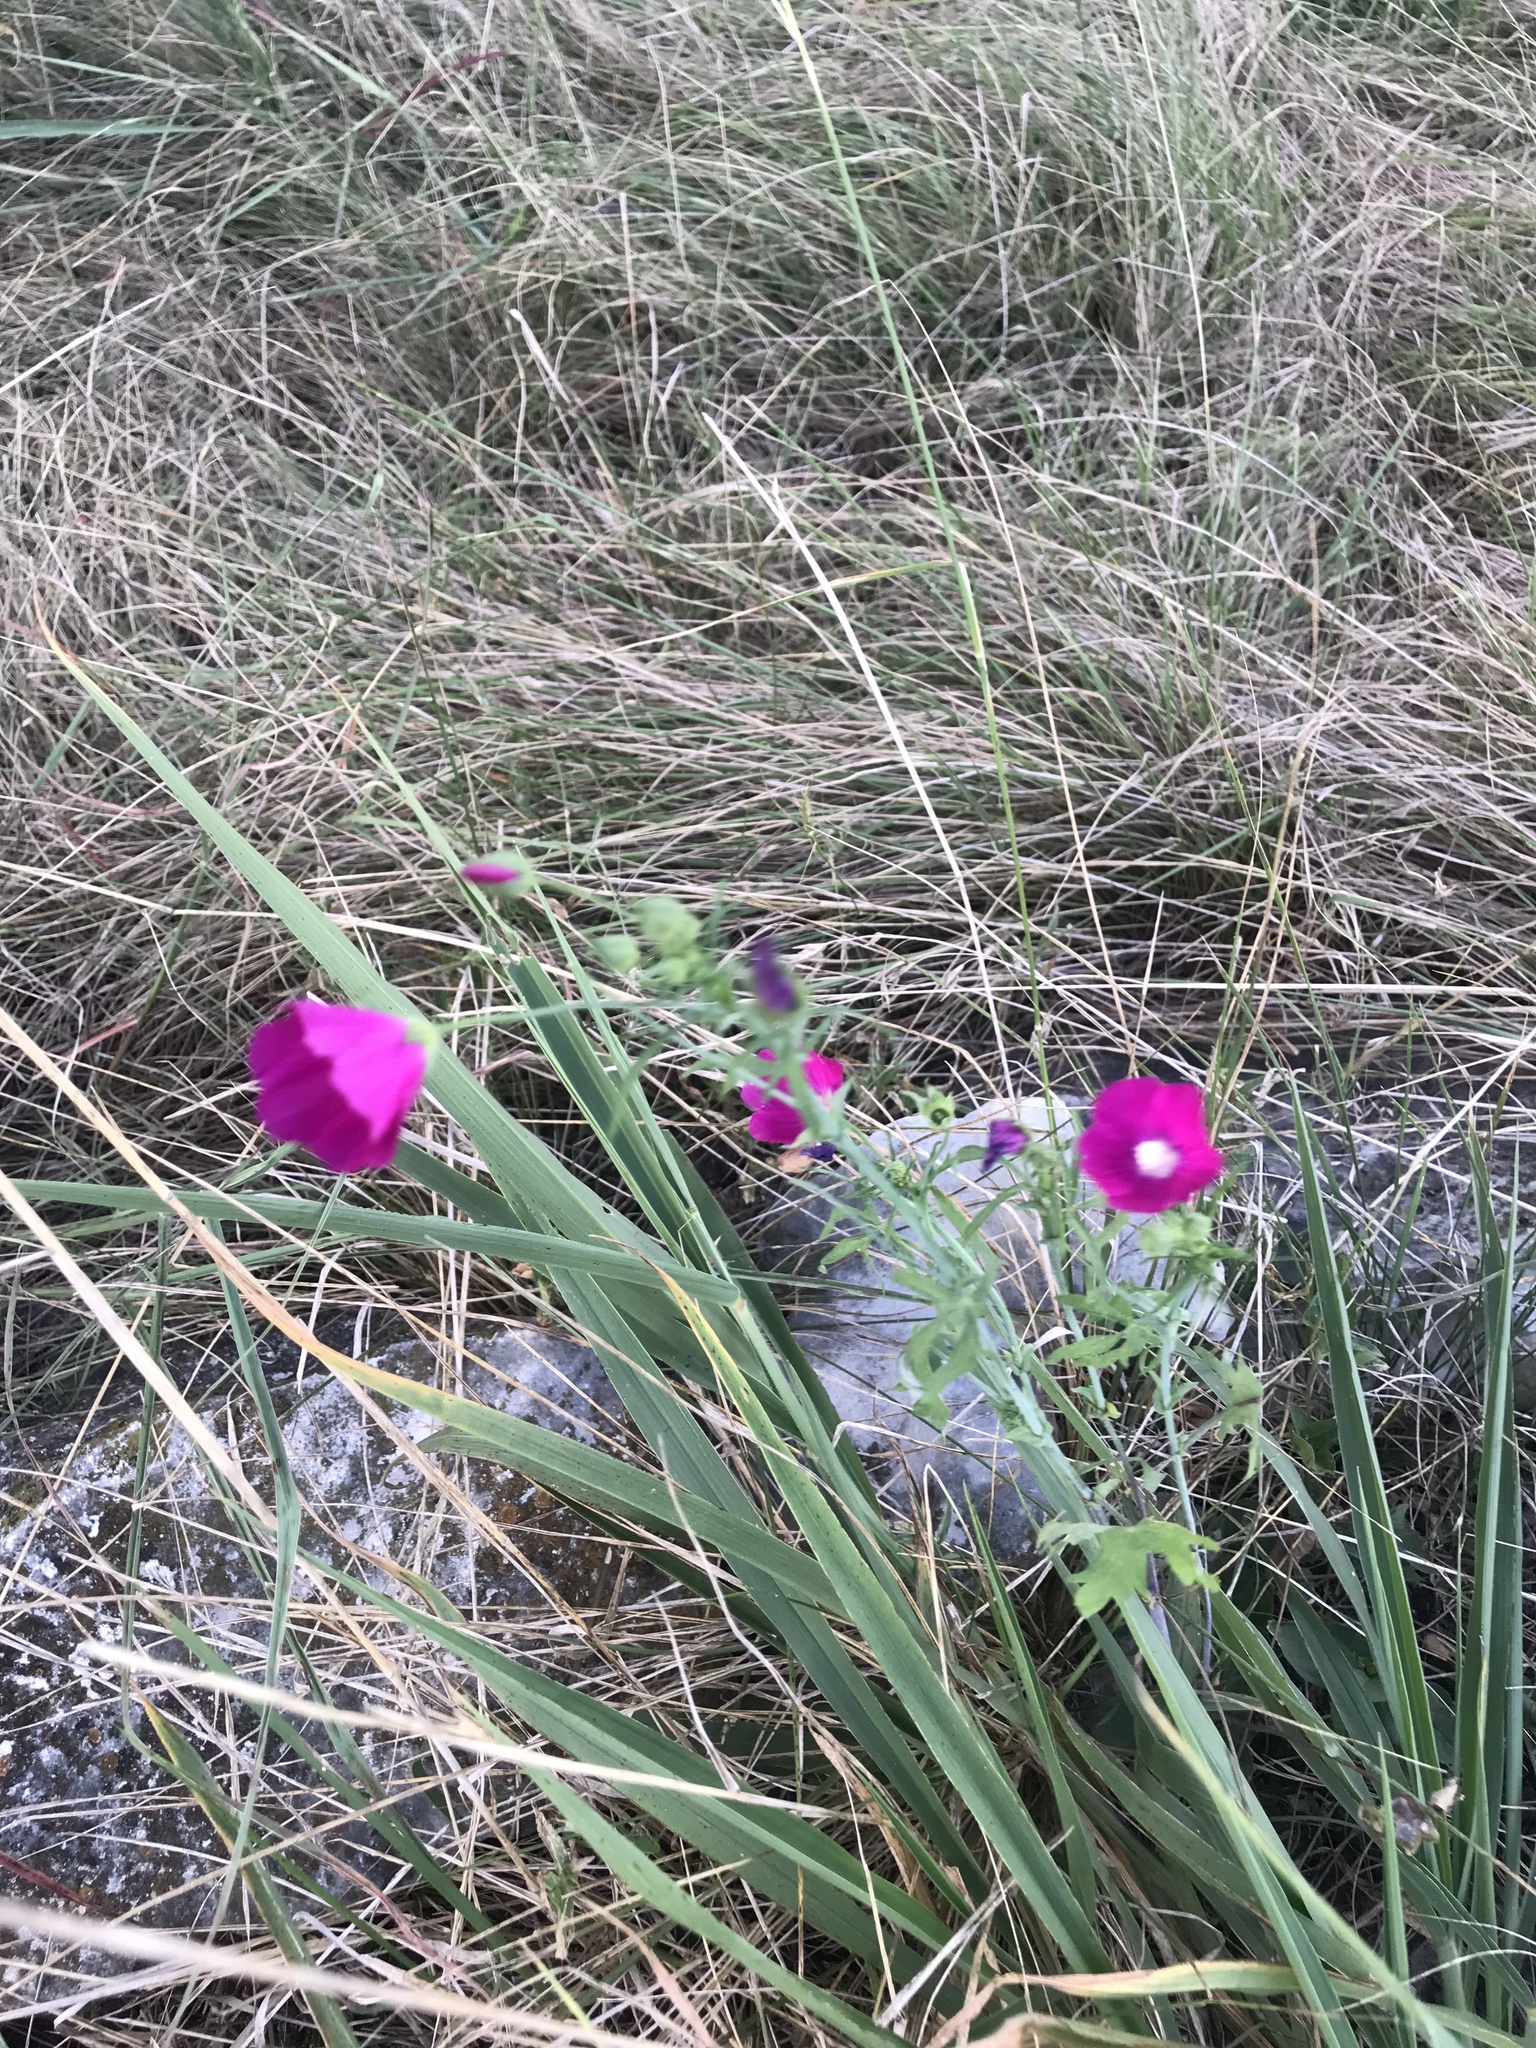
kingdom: Plantae
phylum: Tracheophyta
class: Magnoliopsida
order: Malvales
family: Malvaceae
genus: Callirhoe
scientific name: Callirhoe leiocarpa
